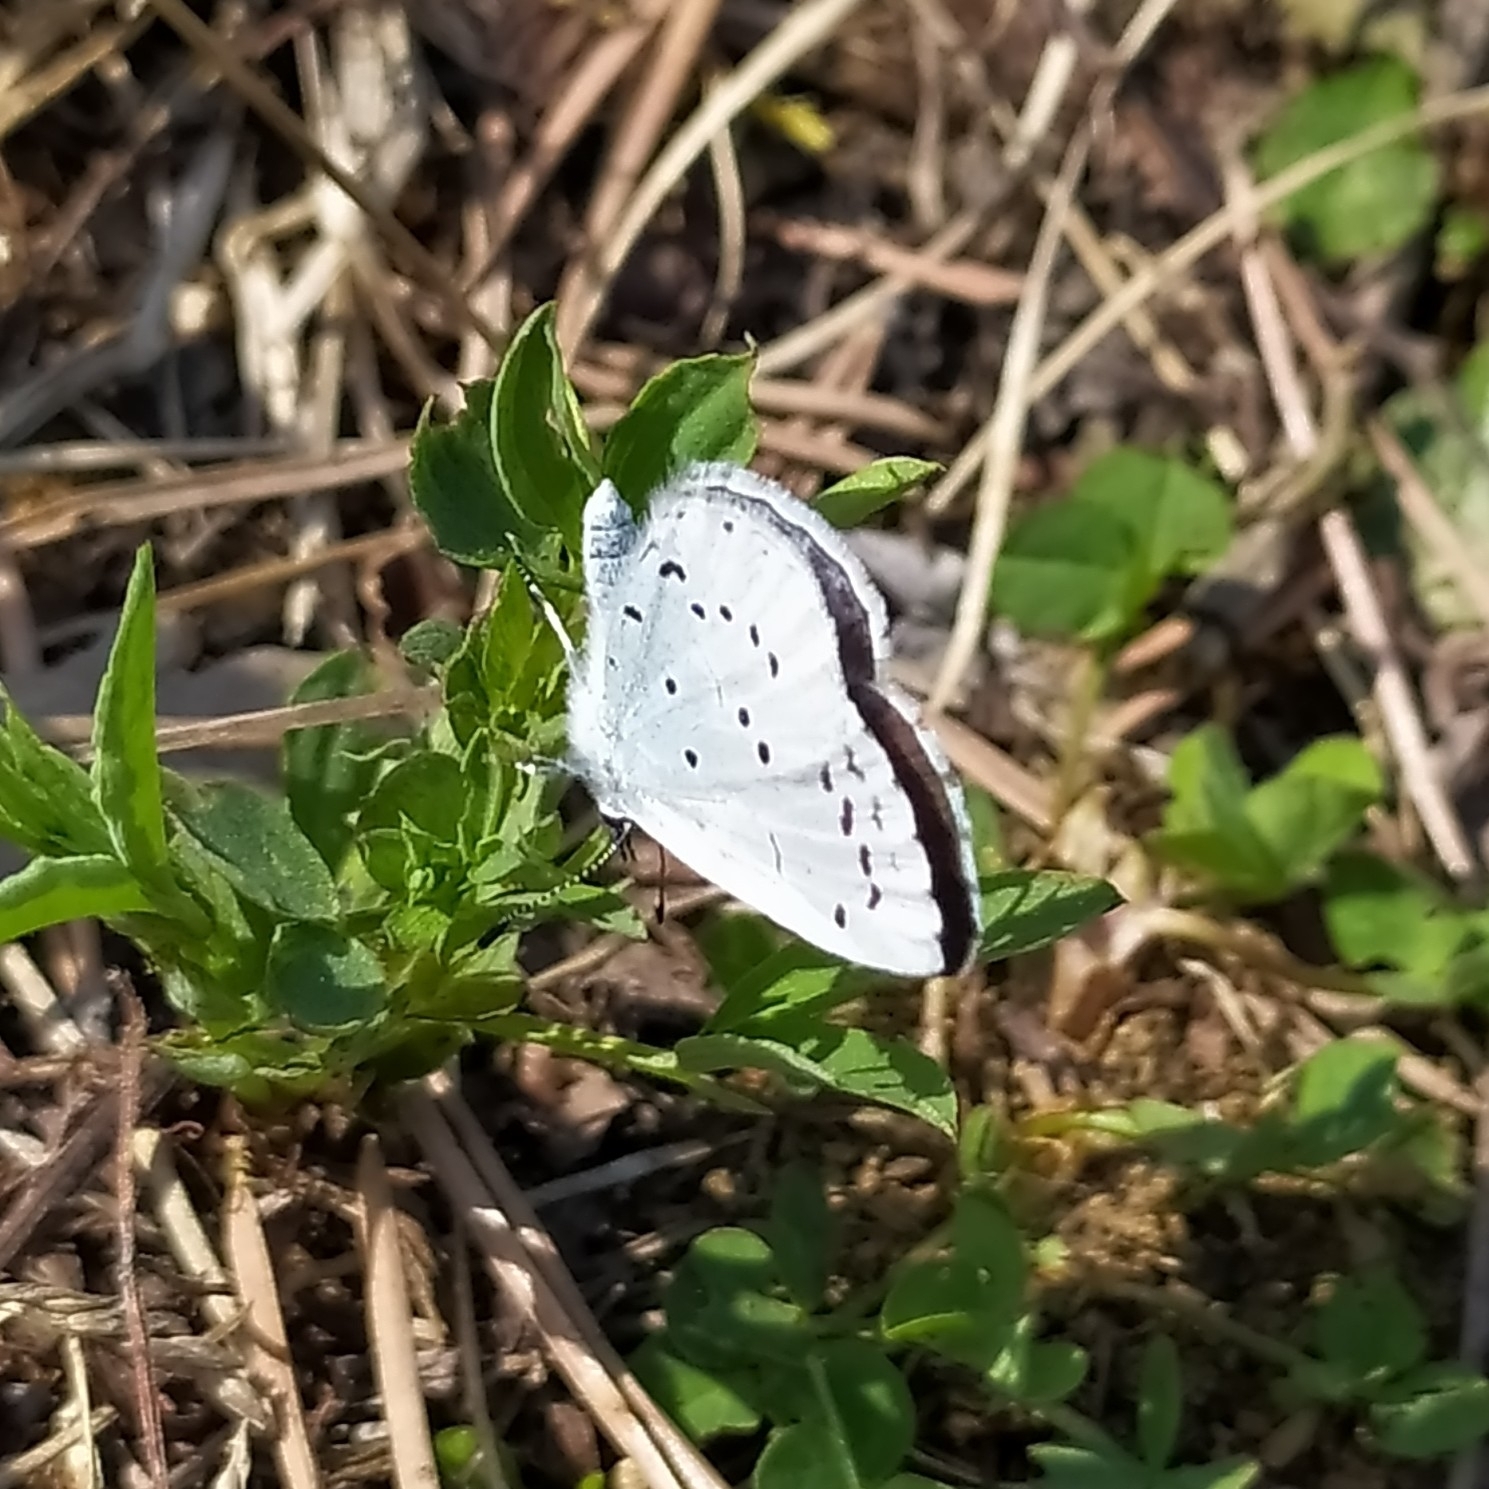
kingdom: Animalia
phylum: Arthropoda
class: Insecta
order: Lepidoptera
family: Lycaenidae
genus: Celastrina
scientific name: Celastrina argiolus
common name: Holly blue
